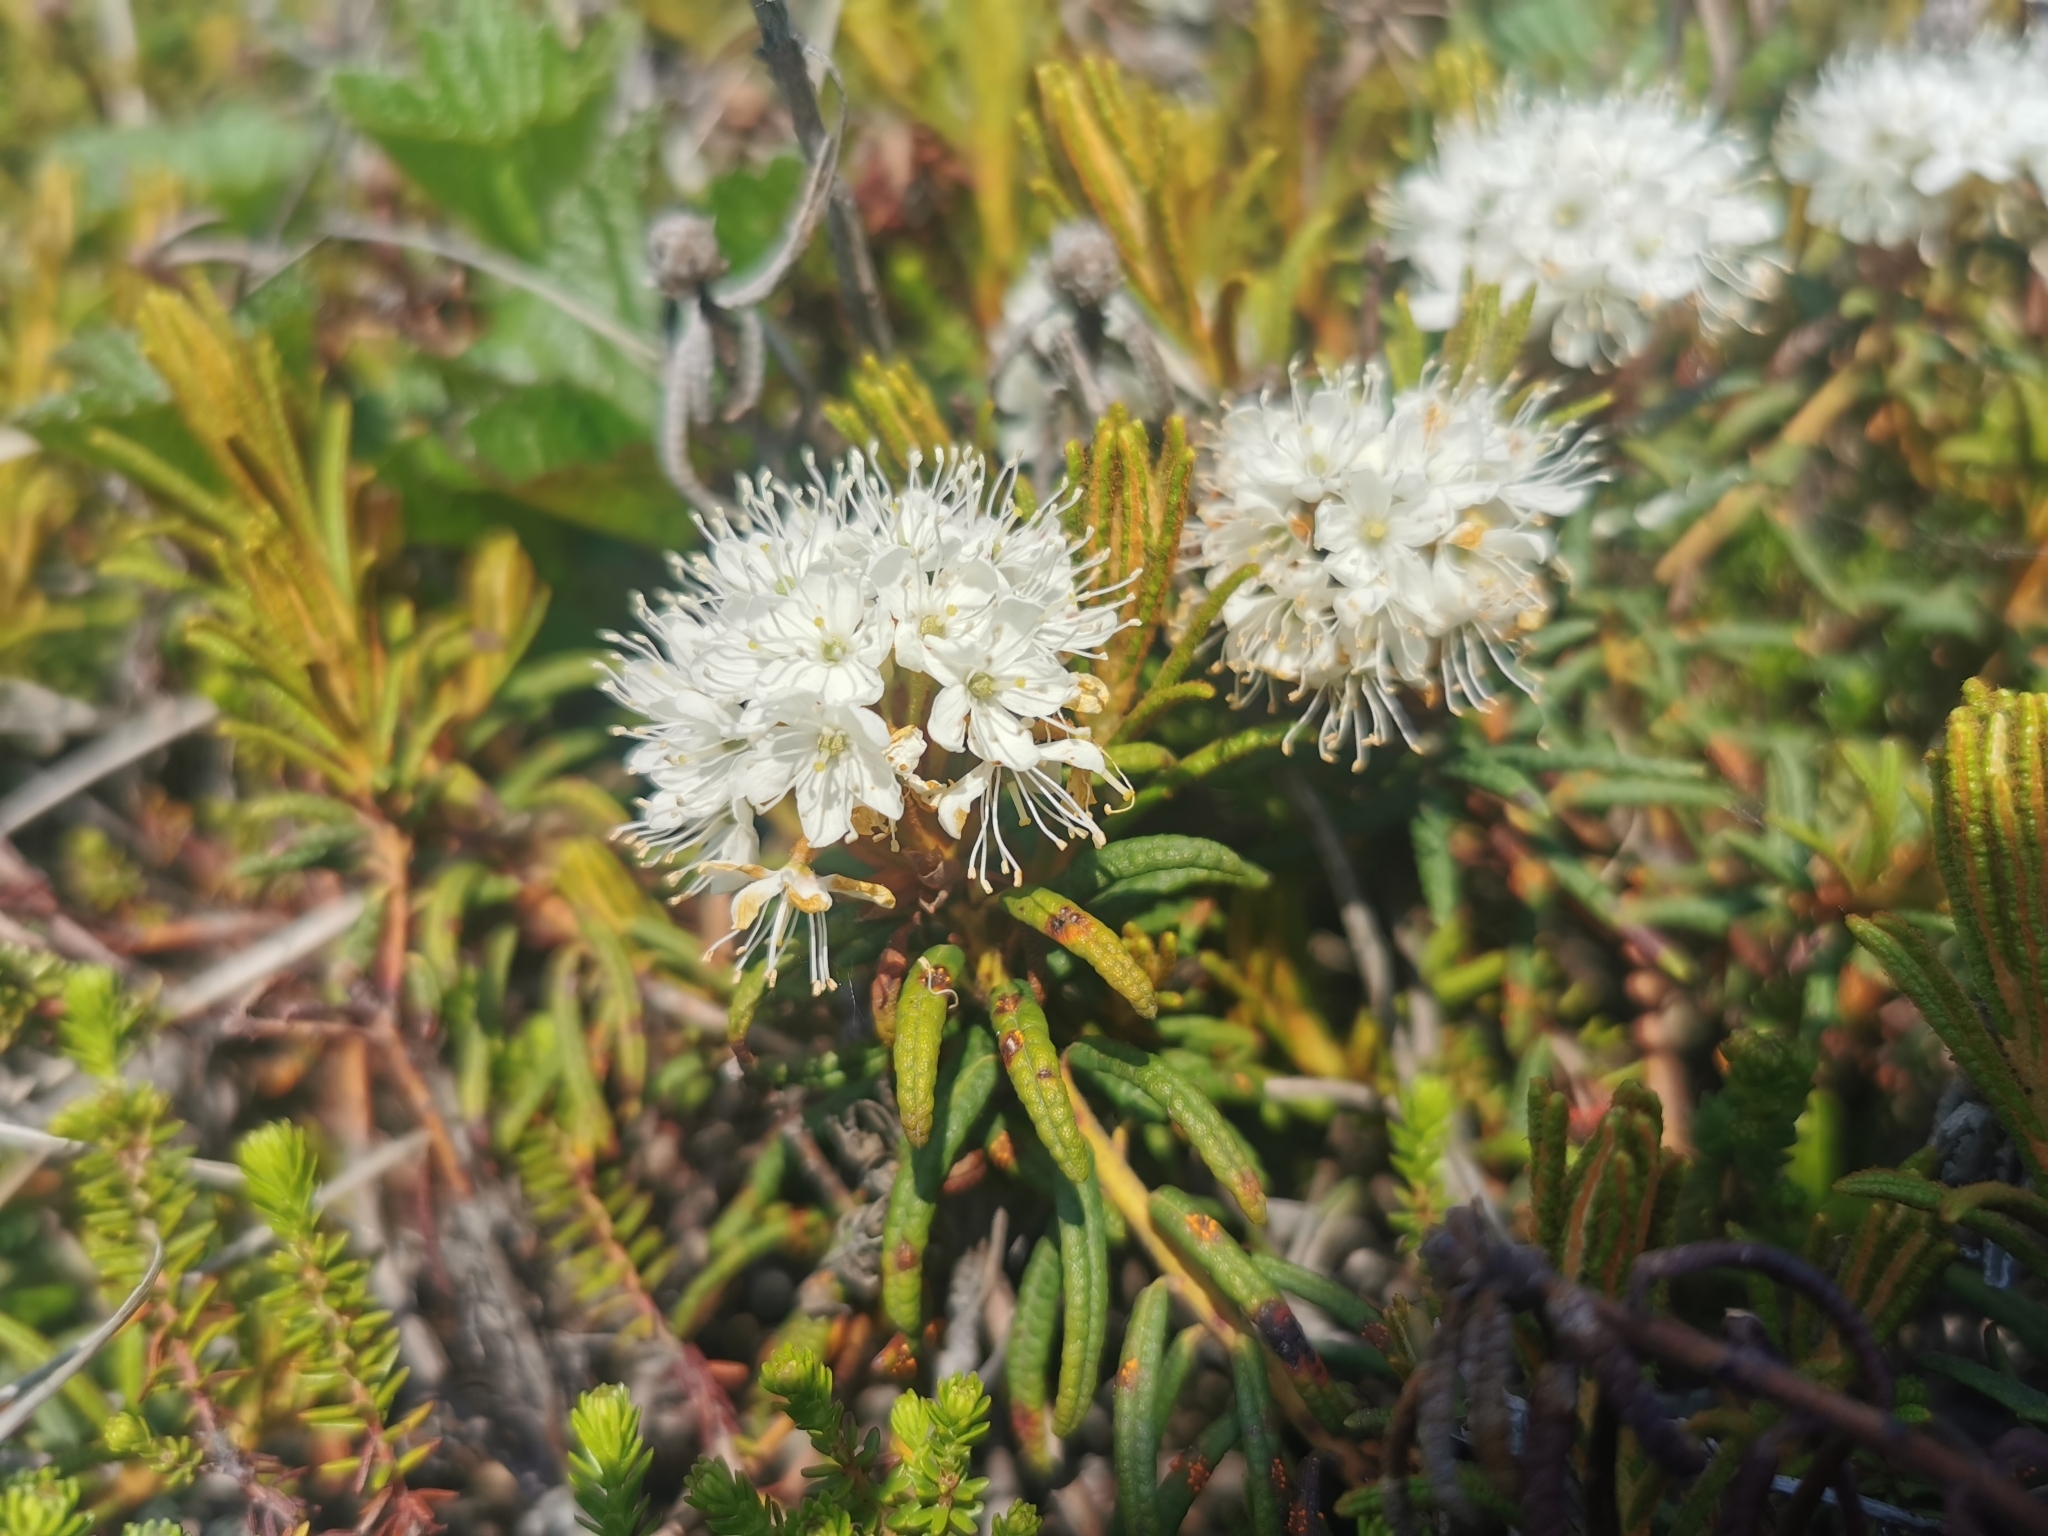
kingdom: Plantae
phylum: Tracheophyta
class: Magnoliopsida
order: Ericales
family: Ericaceae
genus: Rhododendron
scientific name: Rhododendron tomentosum
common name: Marsh labrador tea
